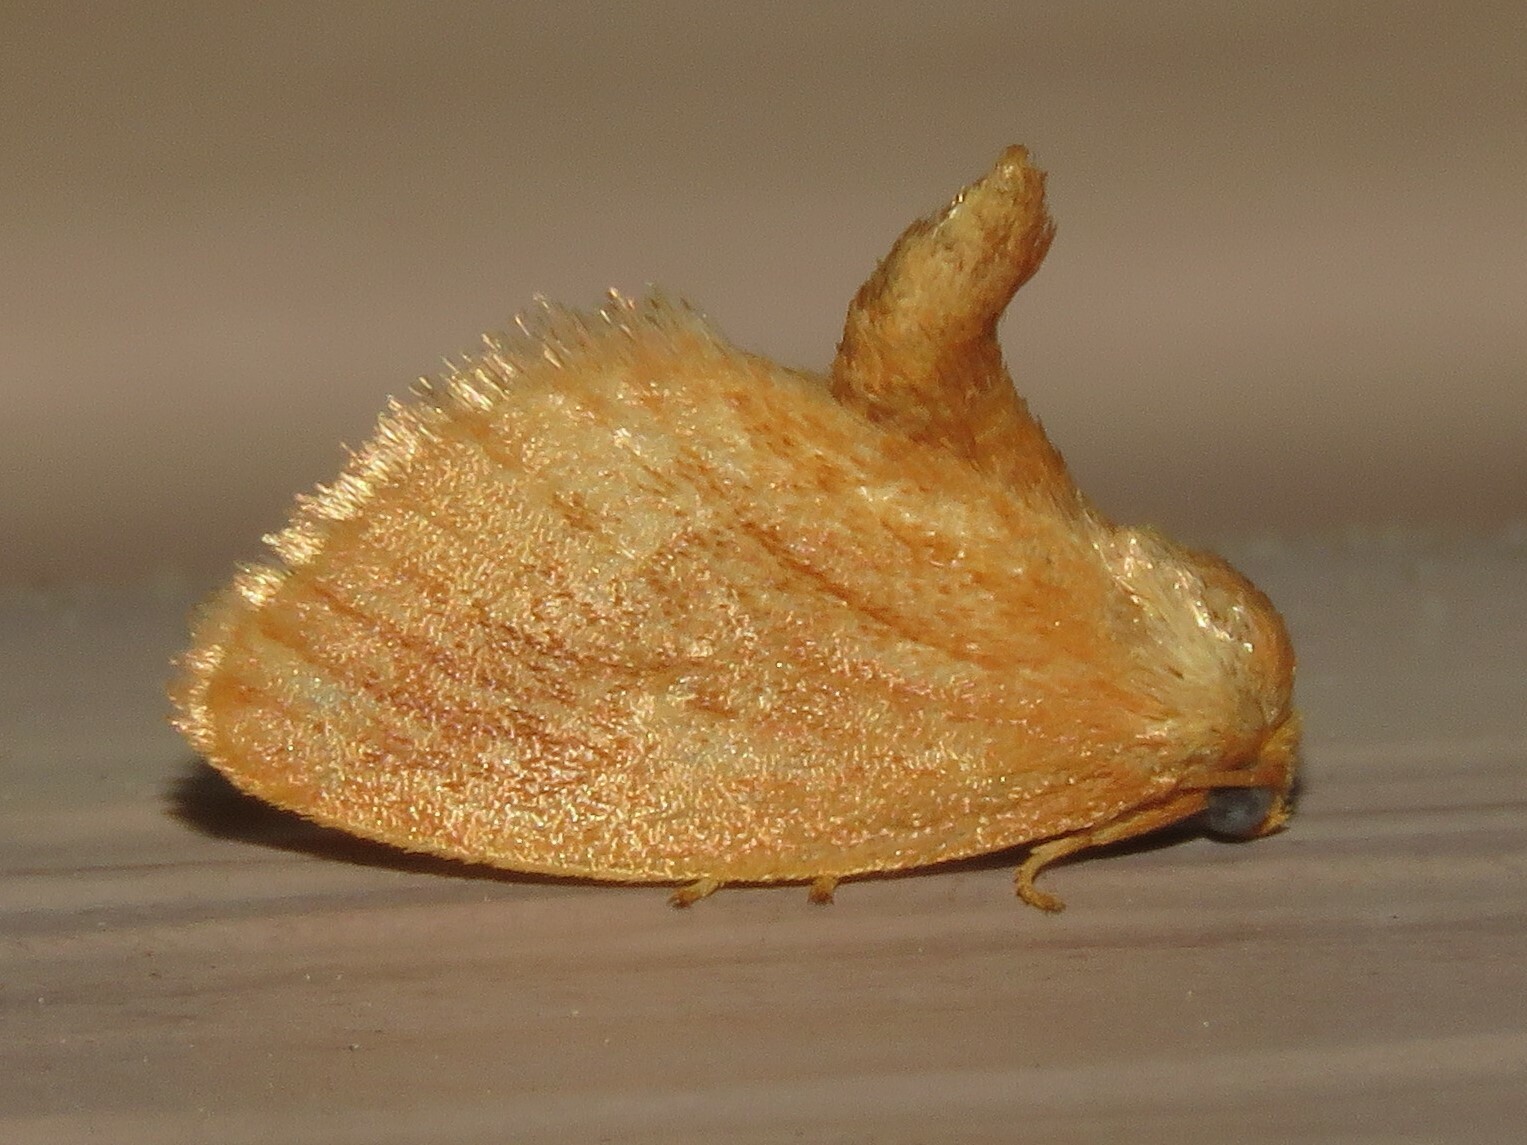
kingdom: Animalia
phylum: Arthropoda
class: Insecta
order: Lepidoptera
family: Limacodidae
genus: Tortricidia
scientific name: Tortricidia testacea
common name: Early button slug moth
